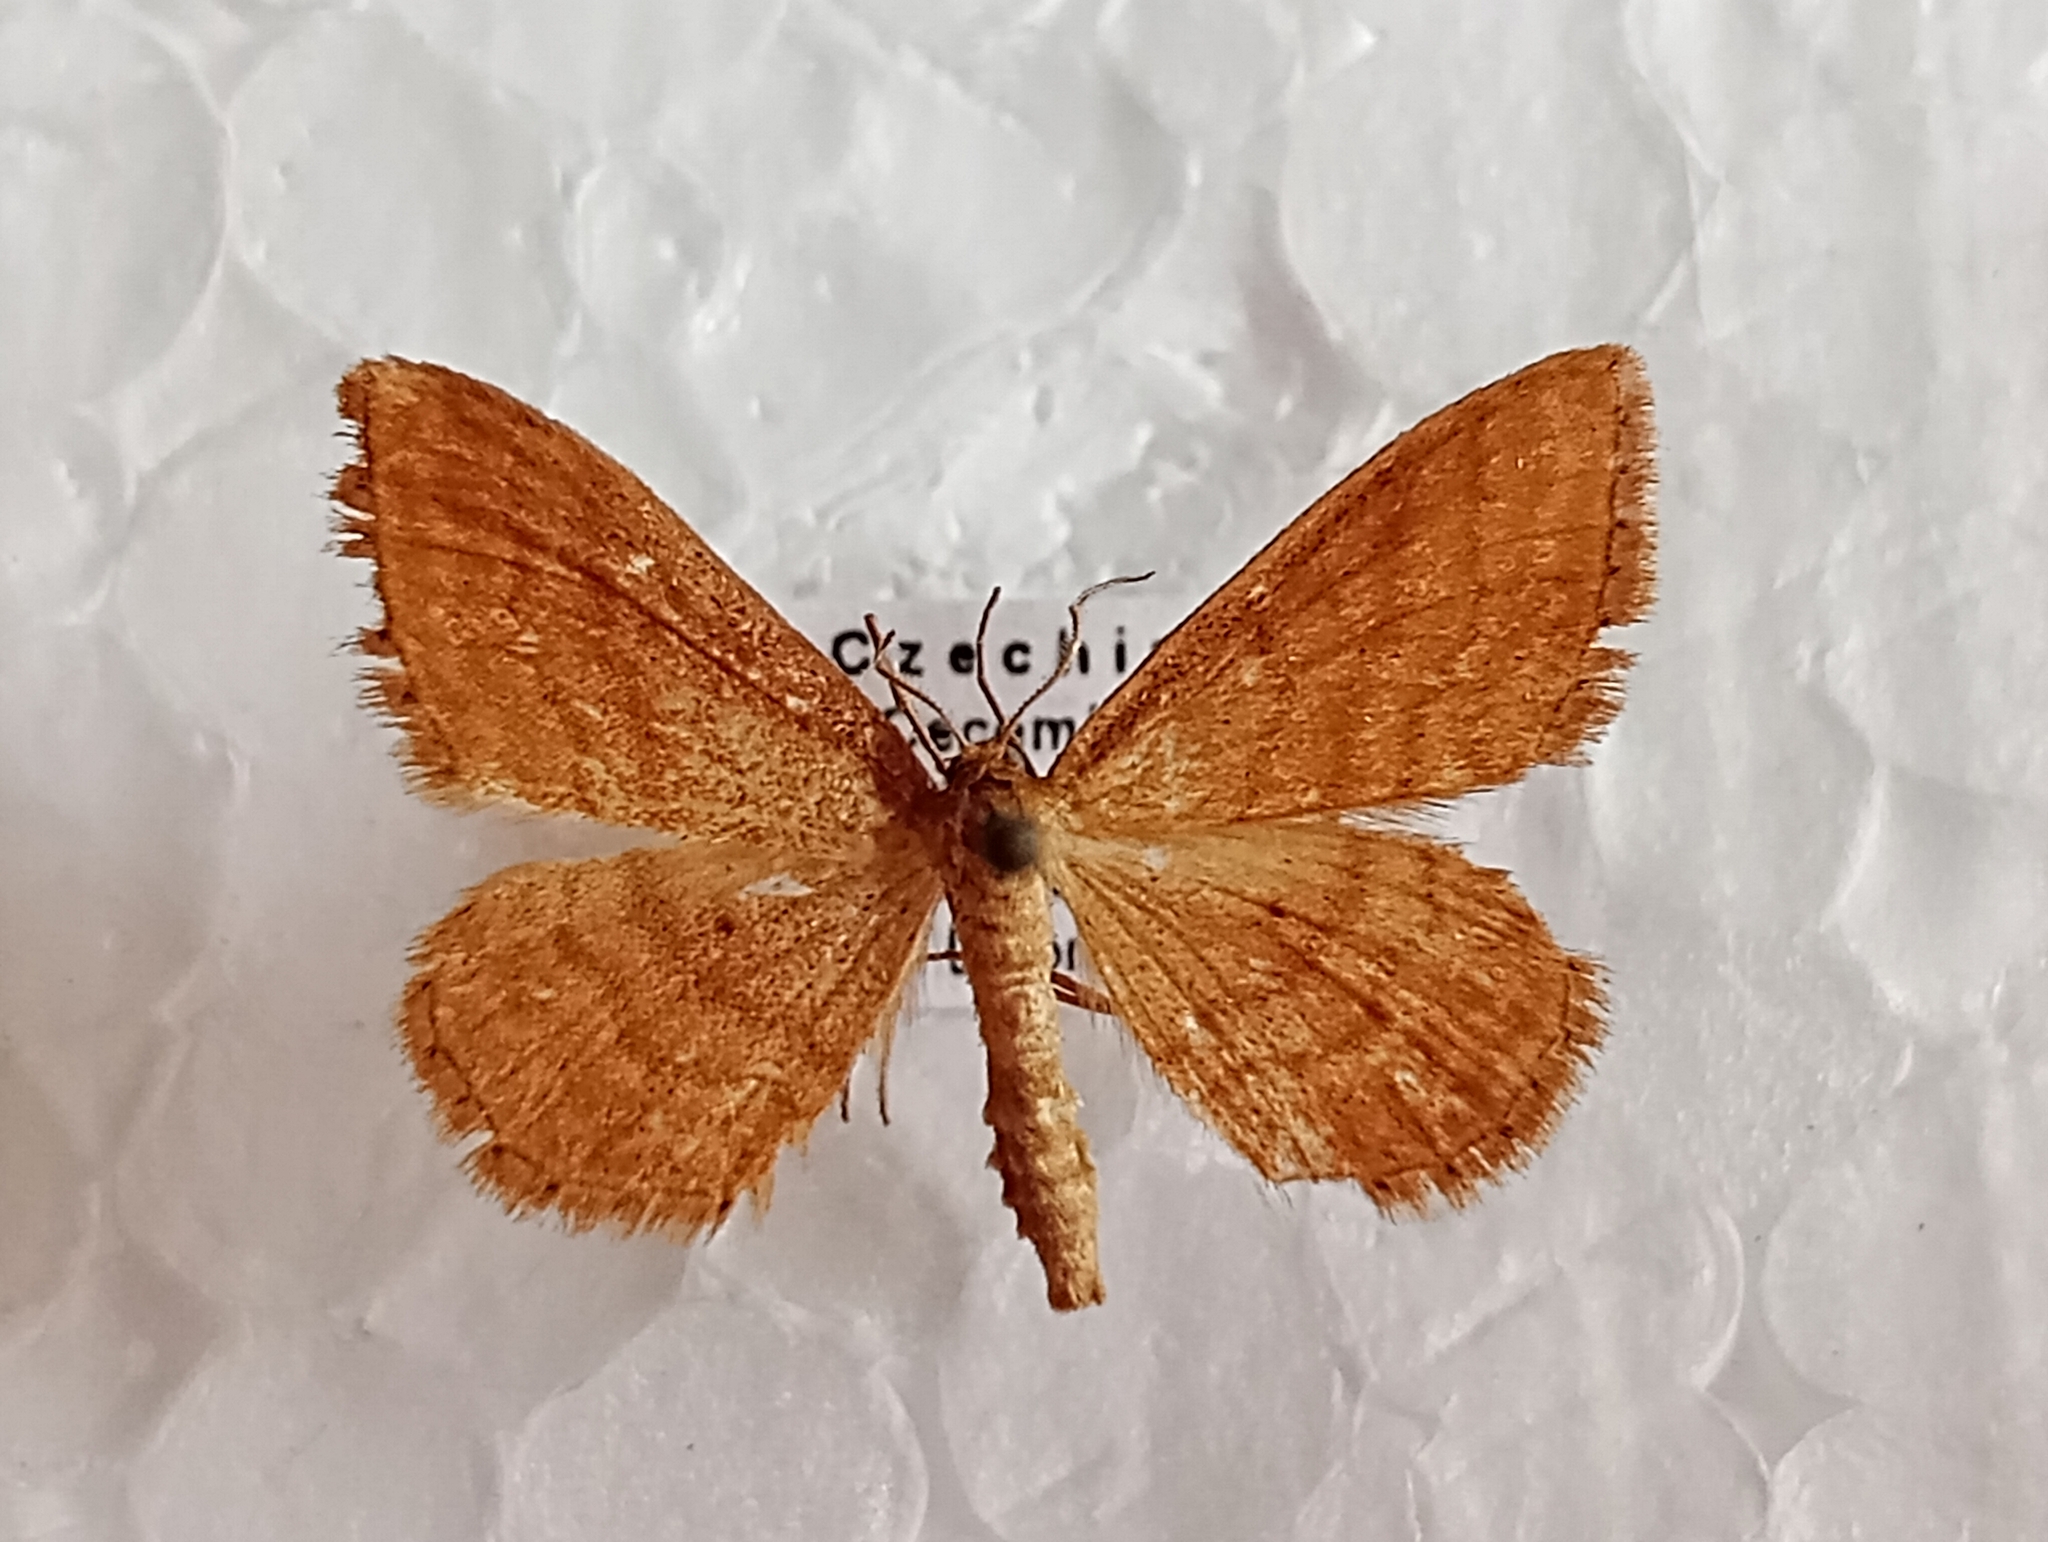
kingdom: Animalia
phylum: Arthropoda
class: Insecta
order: Lepidoptera
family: Geometridae
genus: Idaea
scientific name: Idaea ochrata
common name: Bright wave
